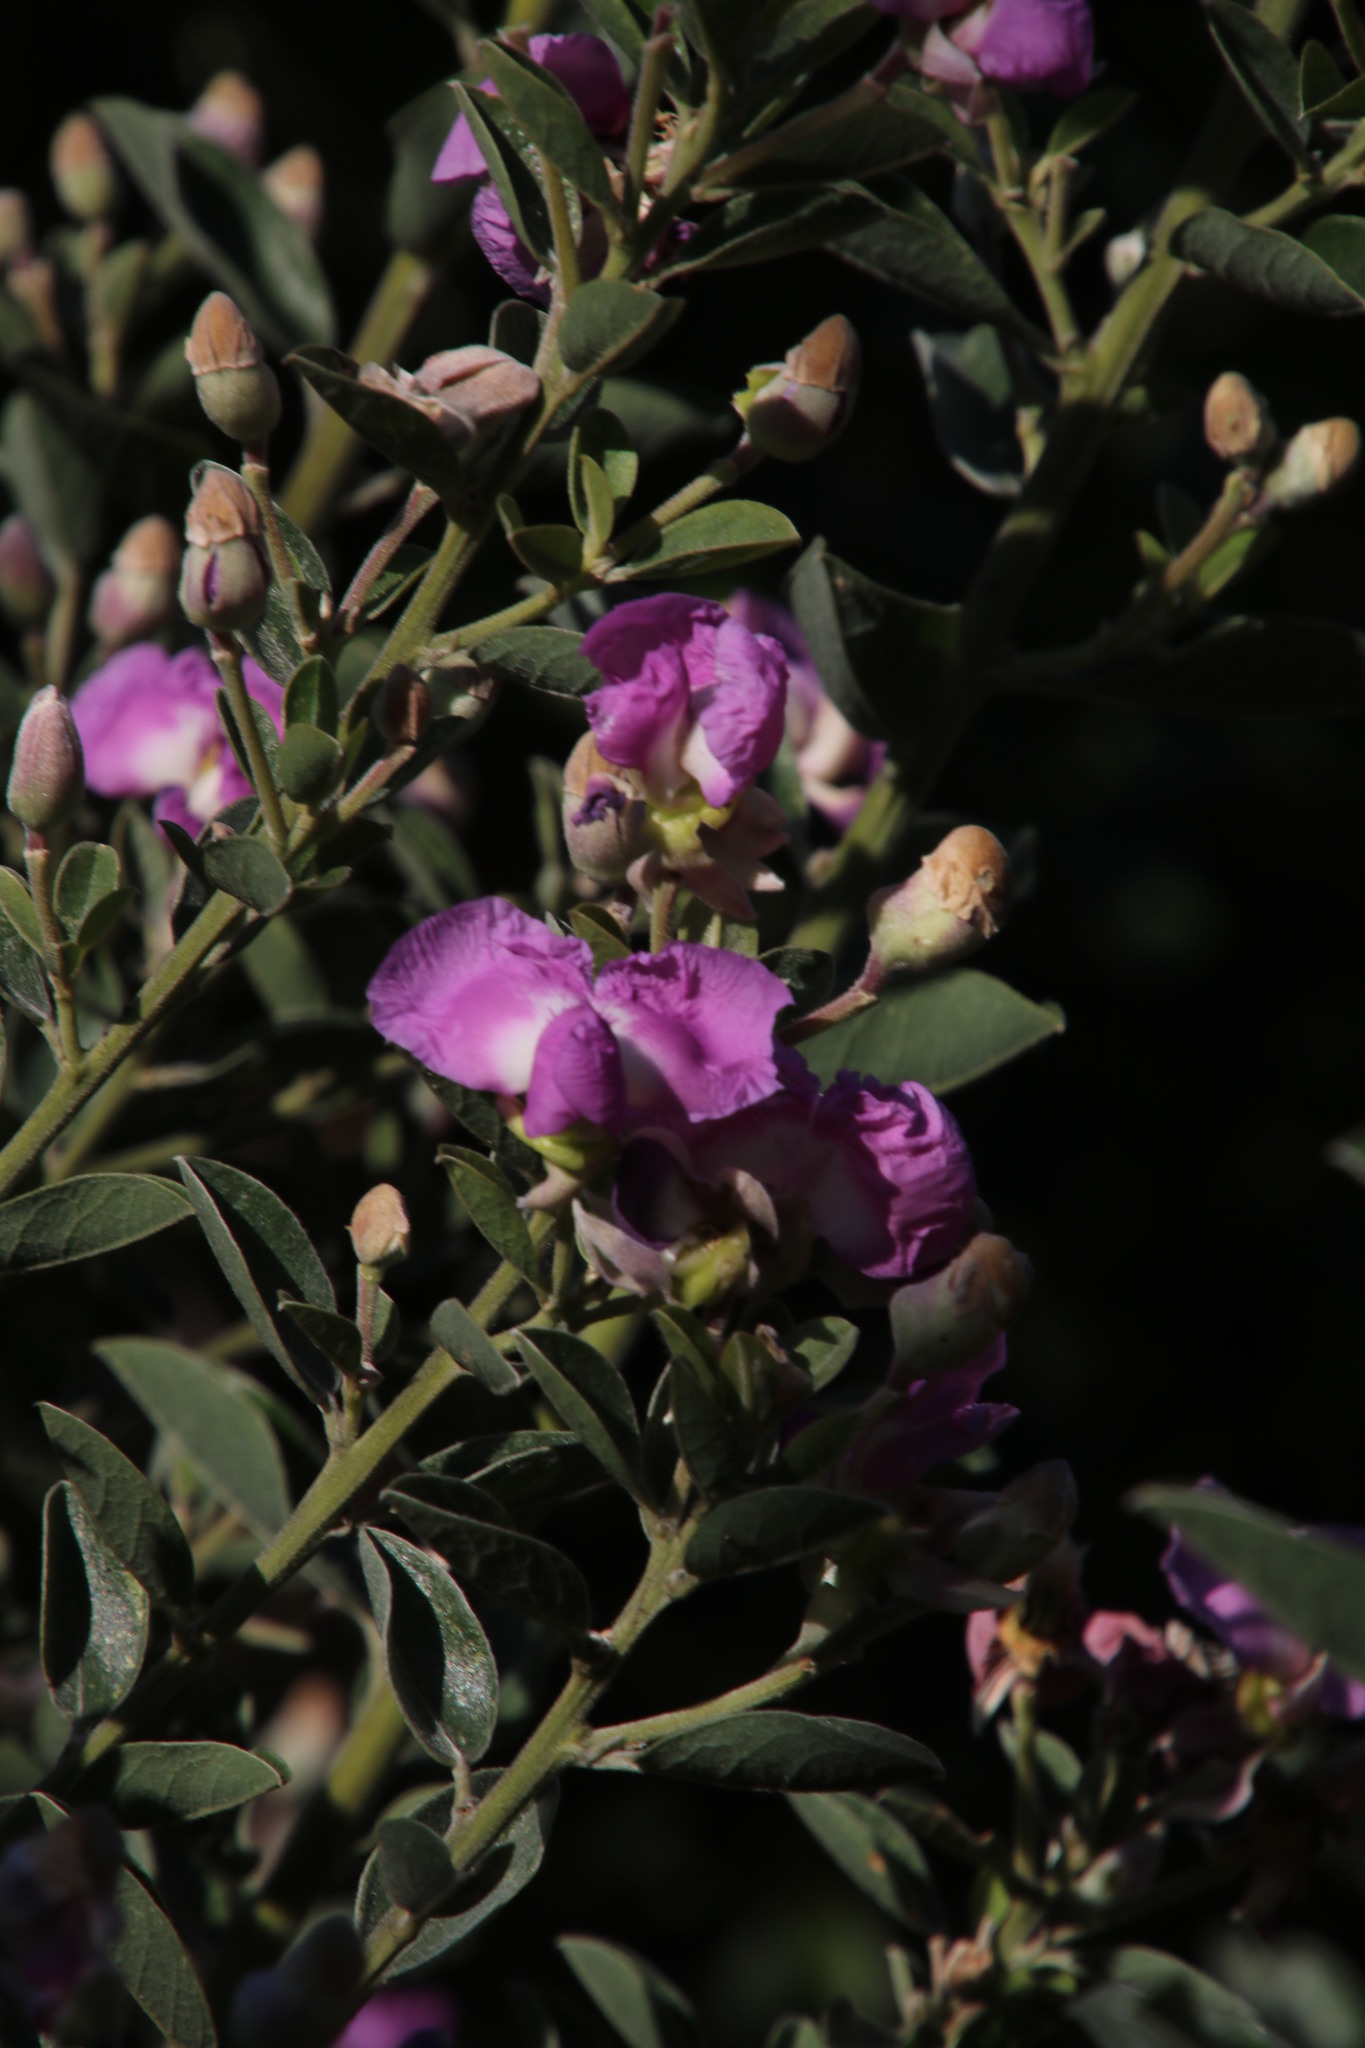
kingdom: Plantae
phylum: Tracheophyta
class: Magnoliopsida
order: Fabales
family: Fabaceae
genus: Podalyria
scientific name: Podalyria calyptrata
